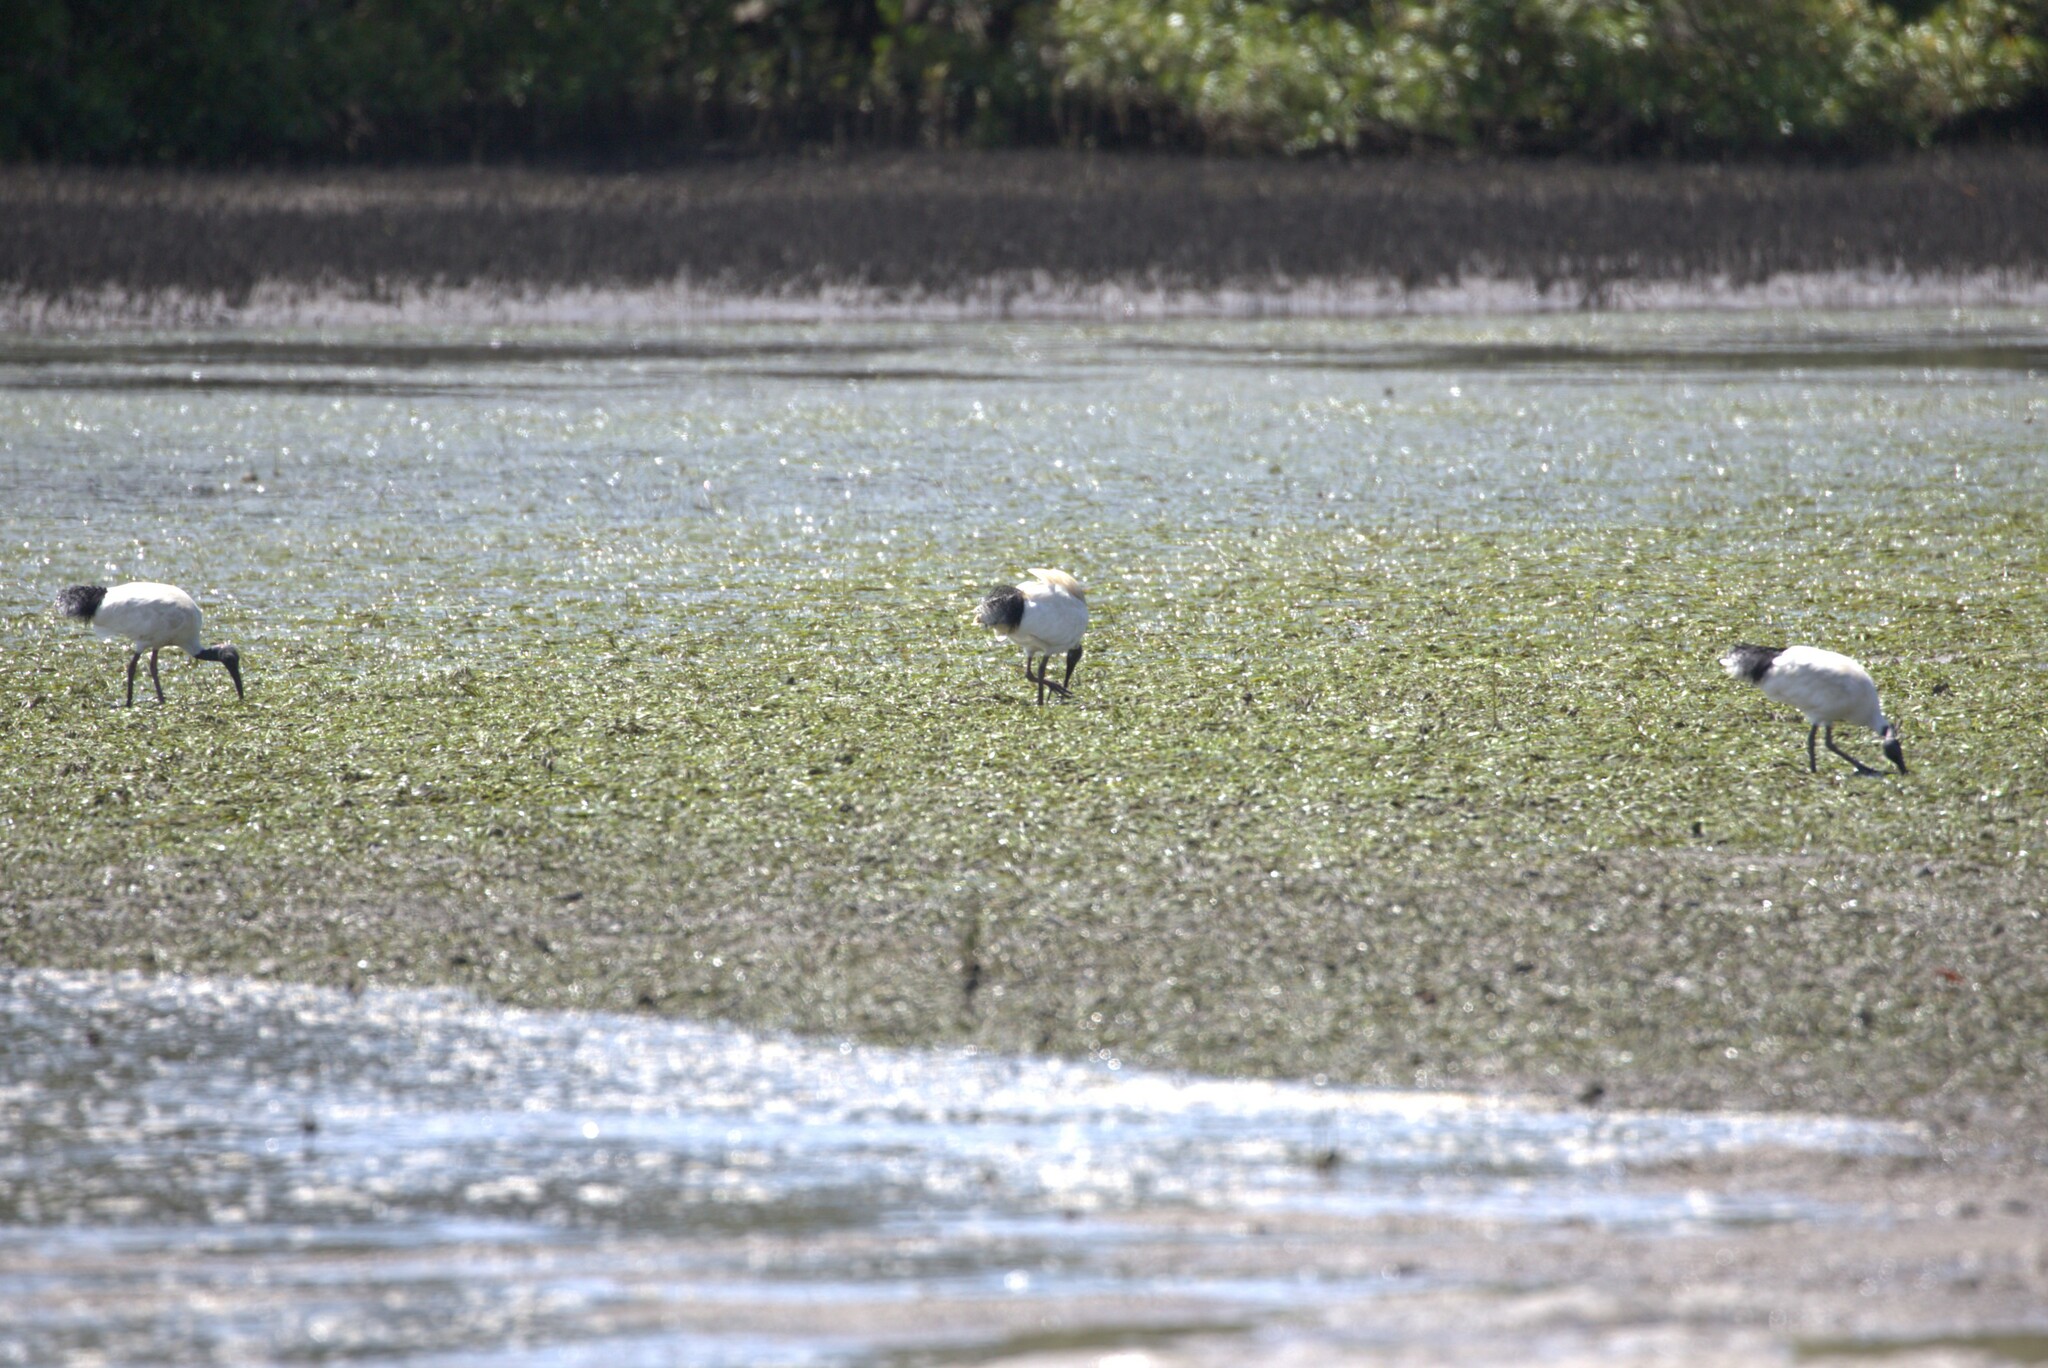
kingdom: Animalia
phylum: Chordata
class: Aves
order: Pelecaniformes
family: Threskiornithidae
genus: Threskiornis
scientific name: Threskiornis molucca
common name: Australian white ibis
